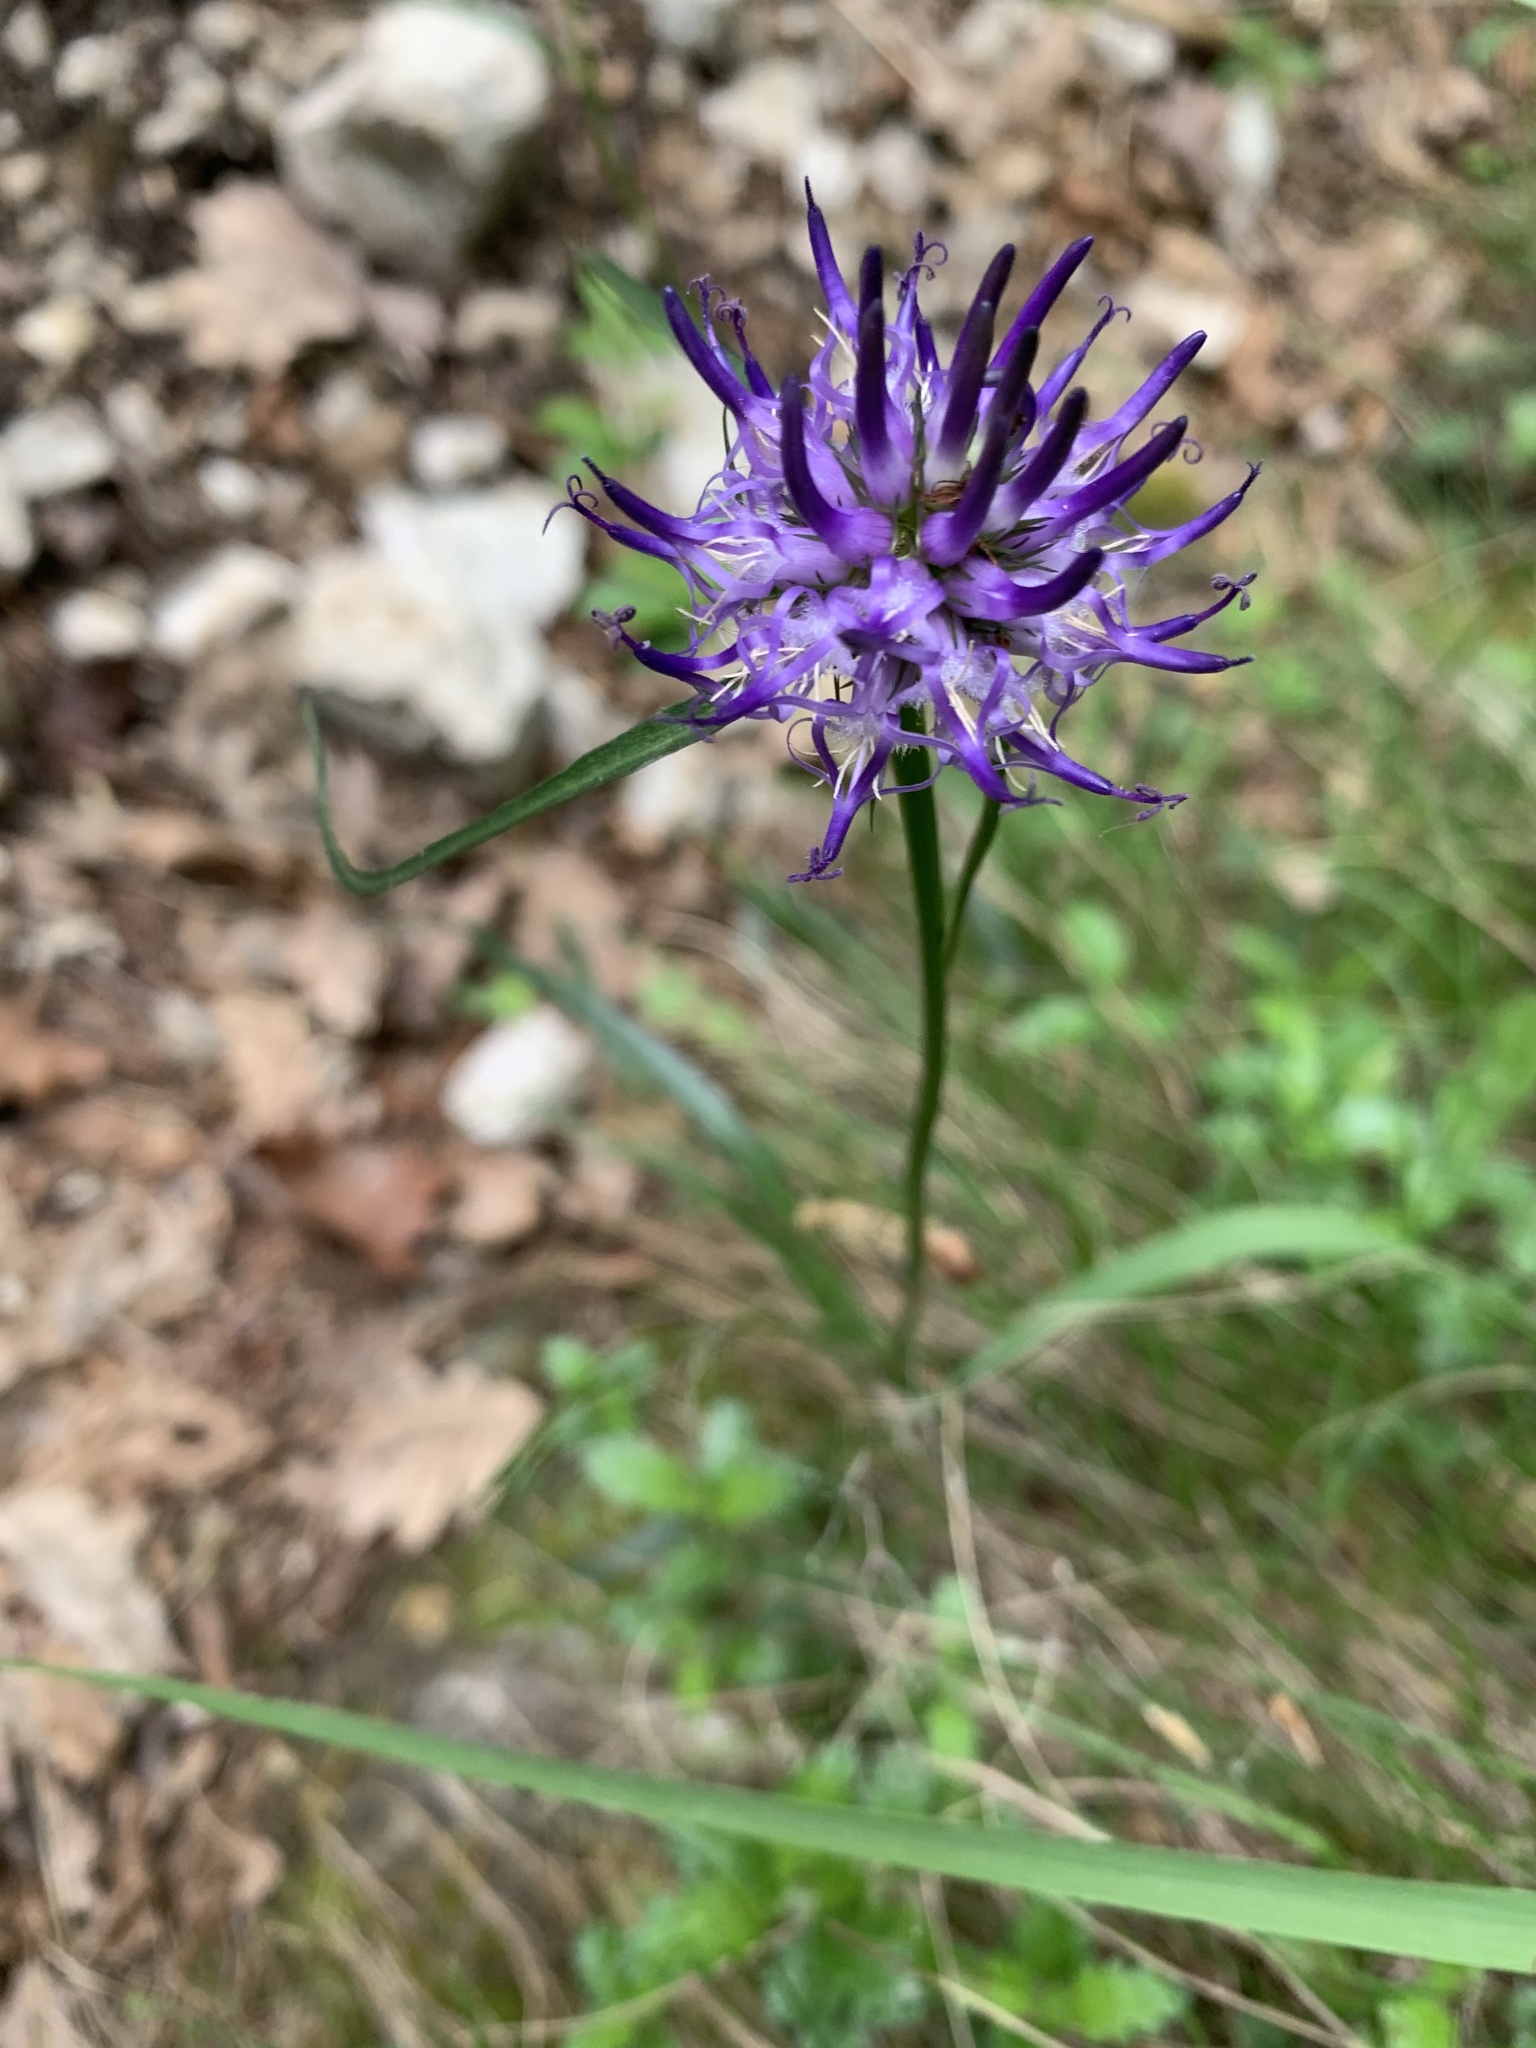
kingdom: Plantae
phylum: Tracheophyta
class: Magnoliopsida
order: Asterales
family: Campanulaceae
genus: Phyteuma
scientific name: Phyteuma scheuchzeri
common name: Oxford rampion
